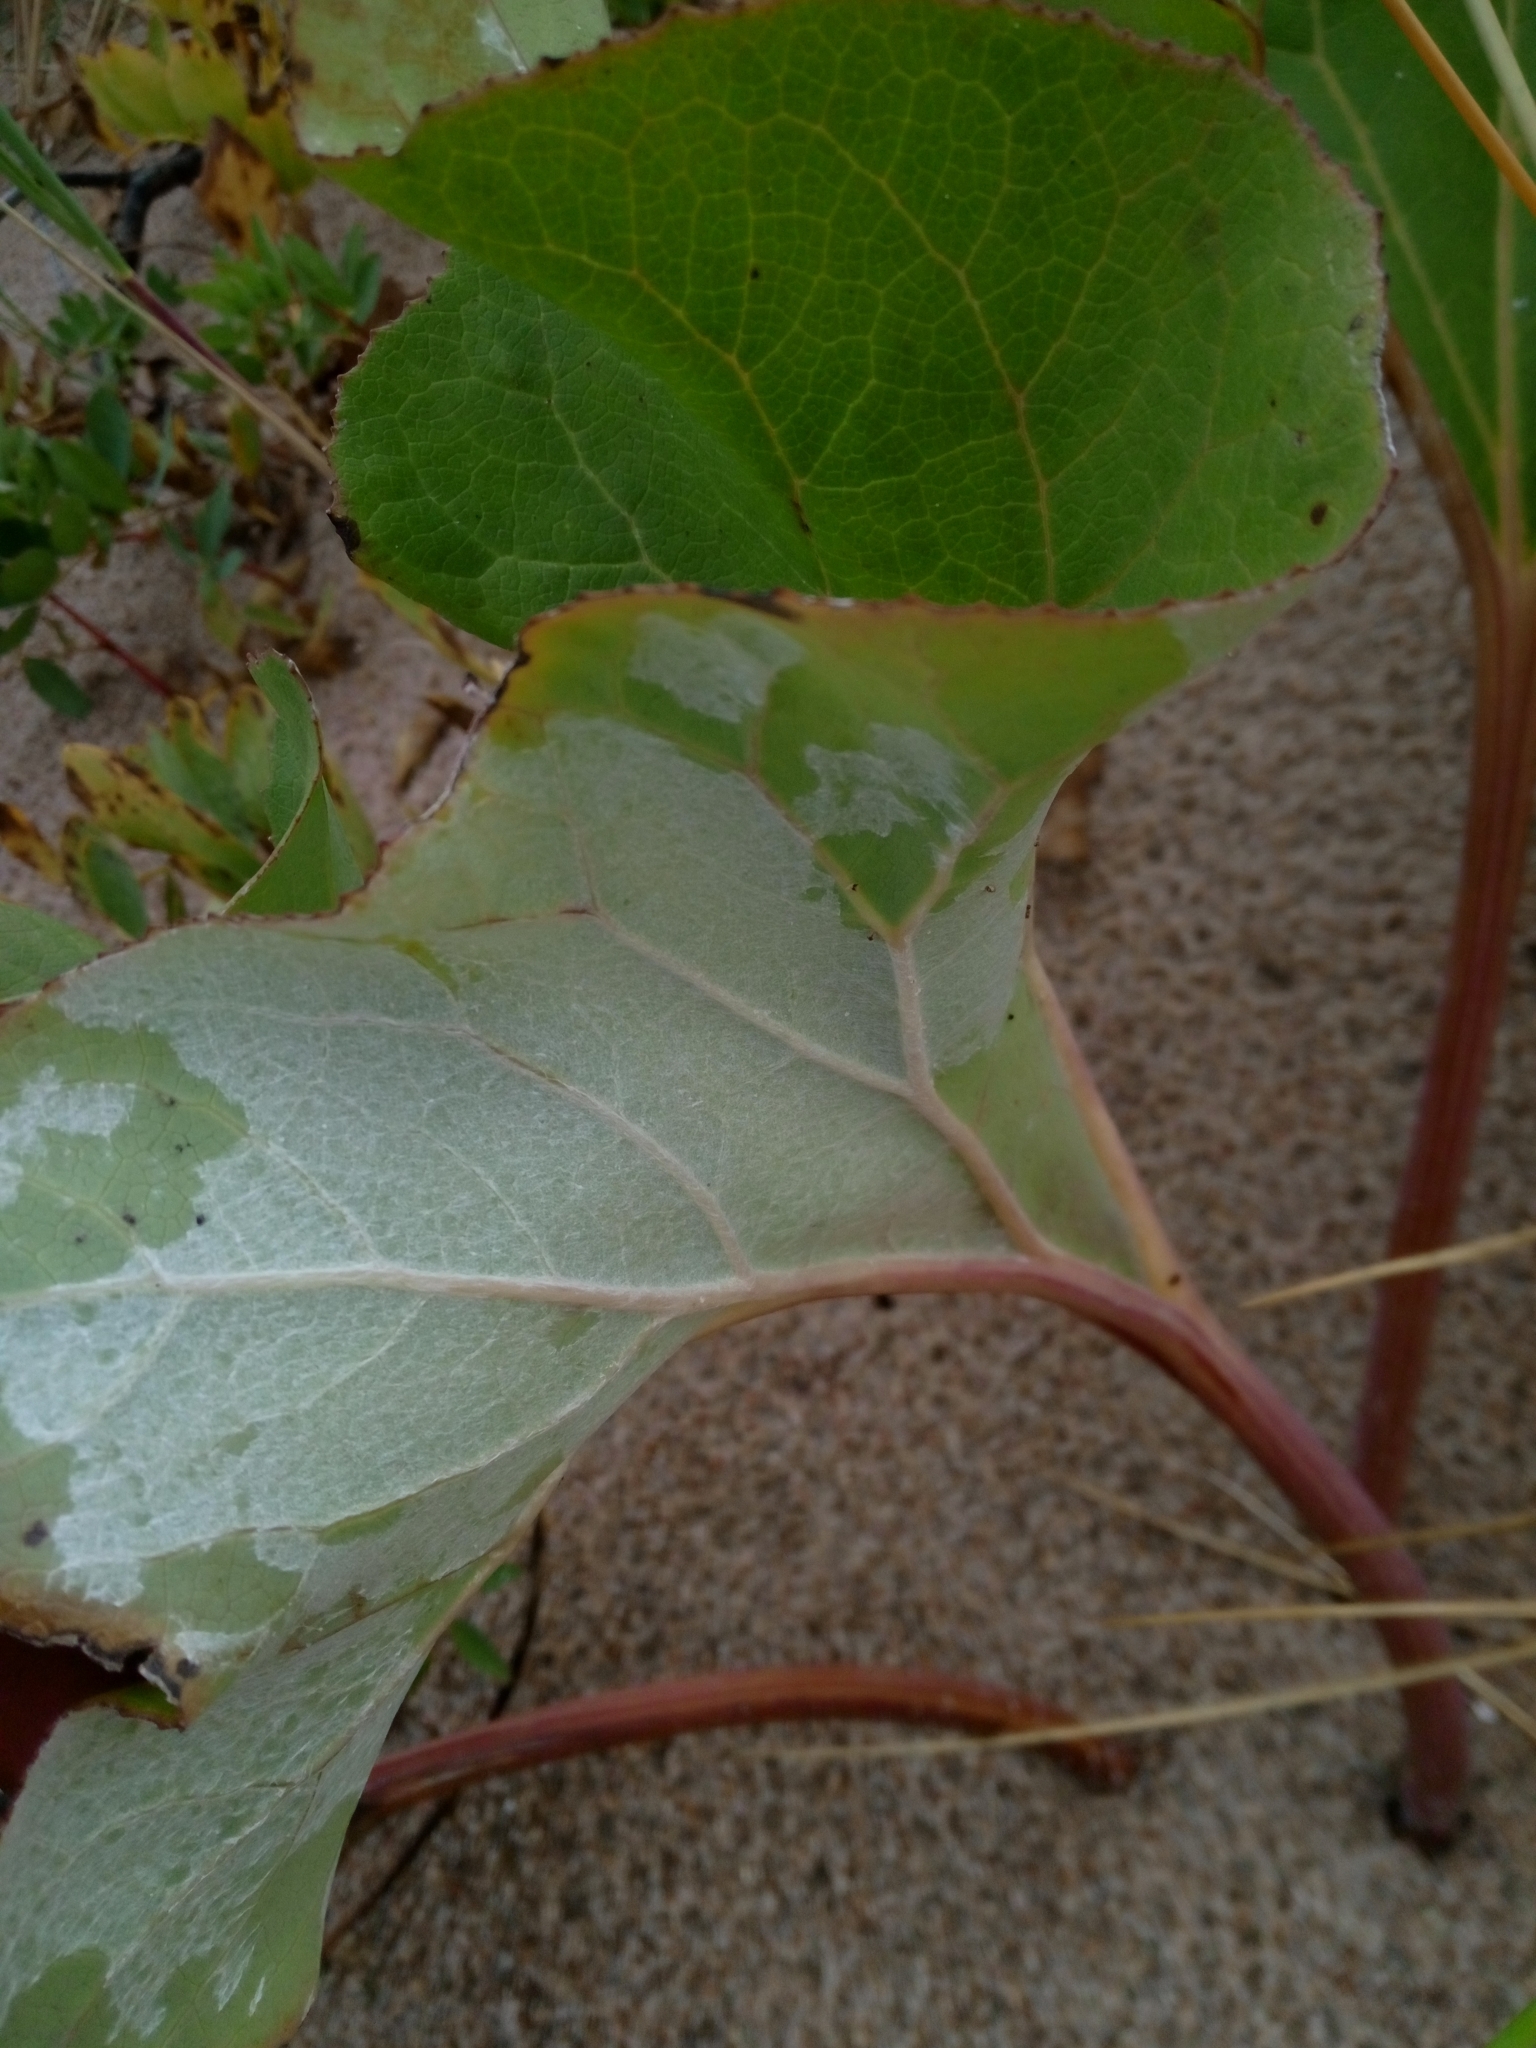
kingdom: Plantae
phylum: Tracheophyta
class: Magnoliopsida
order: Asterales
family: Asteraceae
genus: Petasites
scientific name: Petasites spurius
